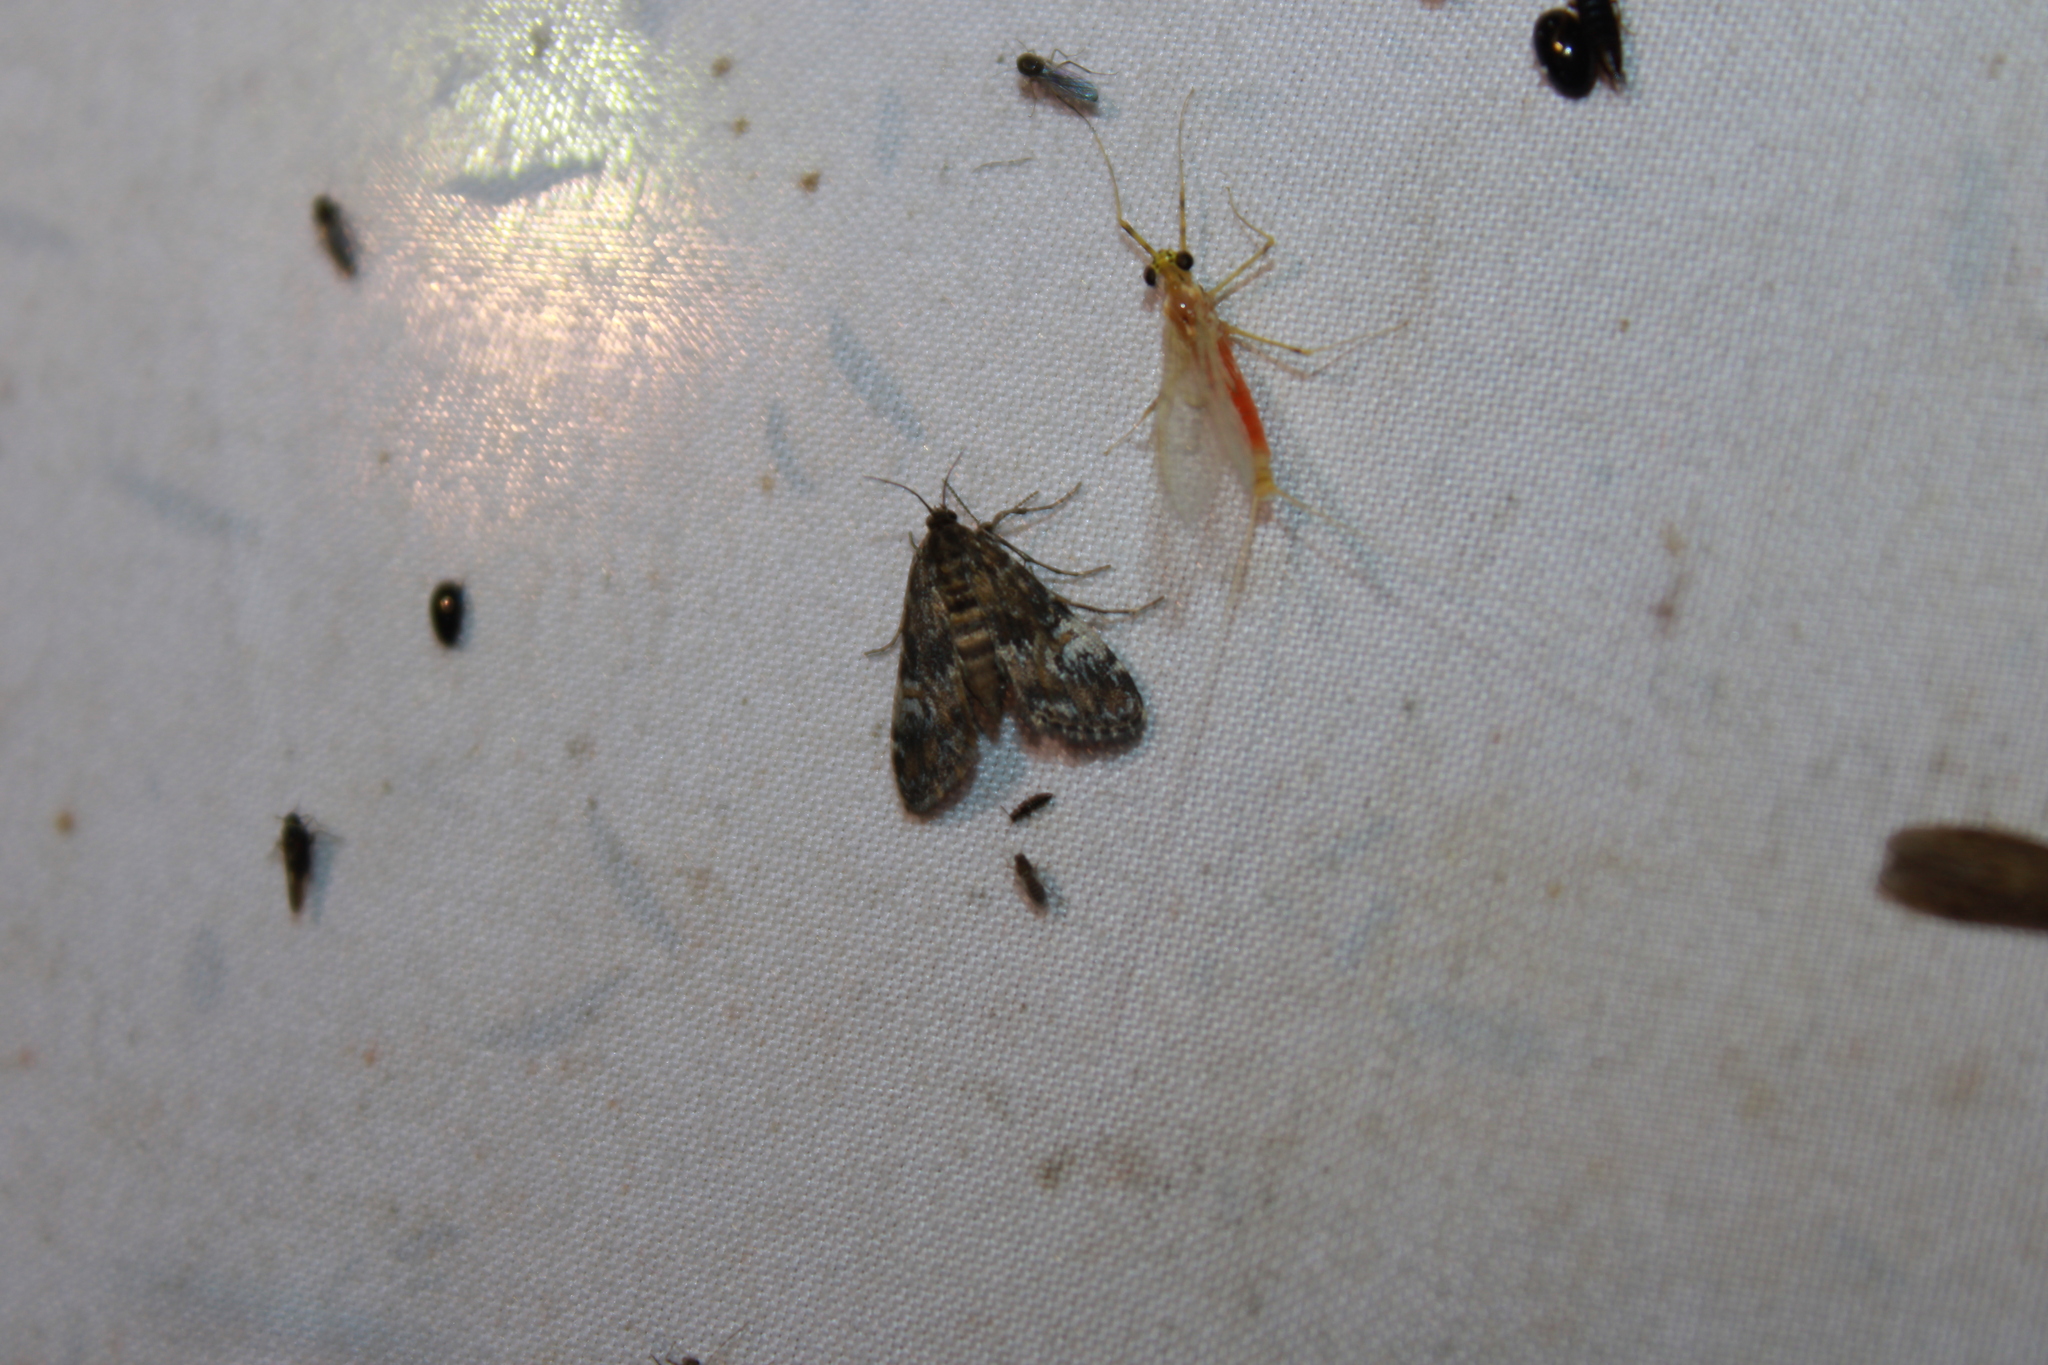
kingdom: Animalia
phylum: Arthropoda
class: Insecta
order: Lepidoptera
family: Crambidae
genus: Elophila
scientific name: Elophila obliteralis
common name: Waterlily leafcutter moth
